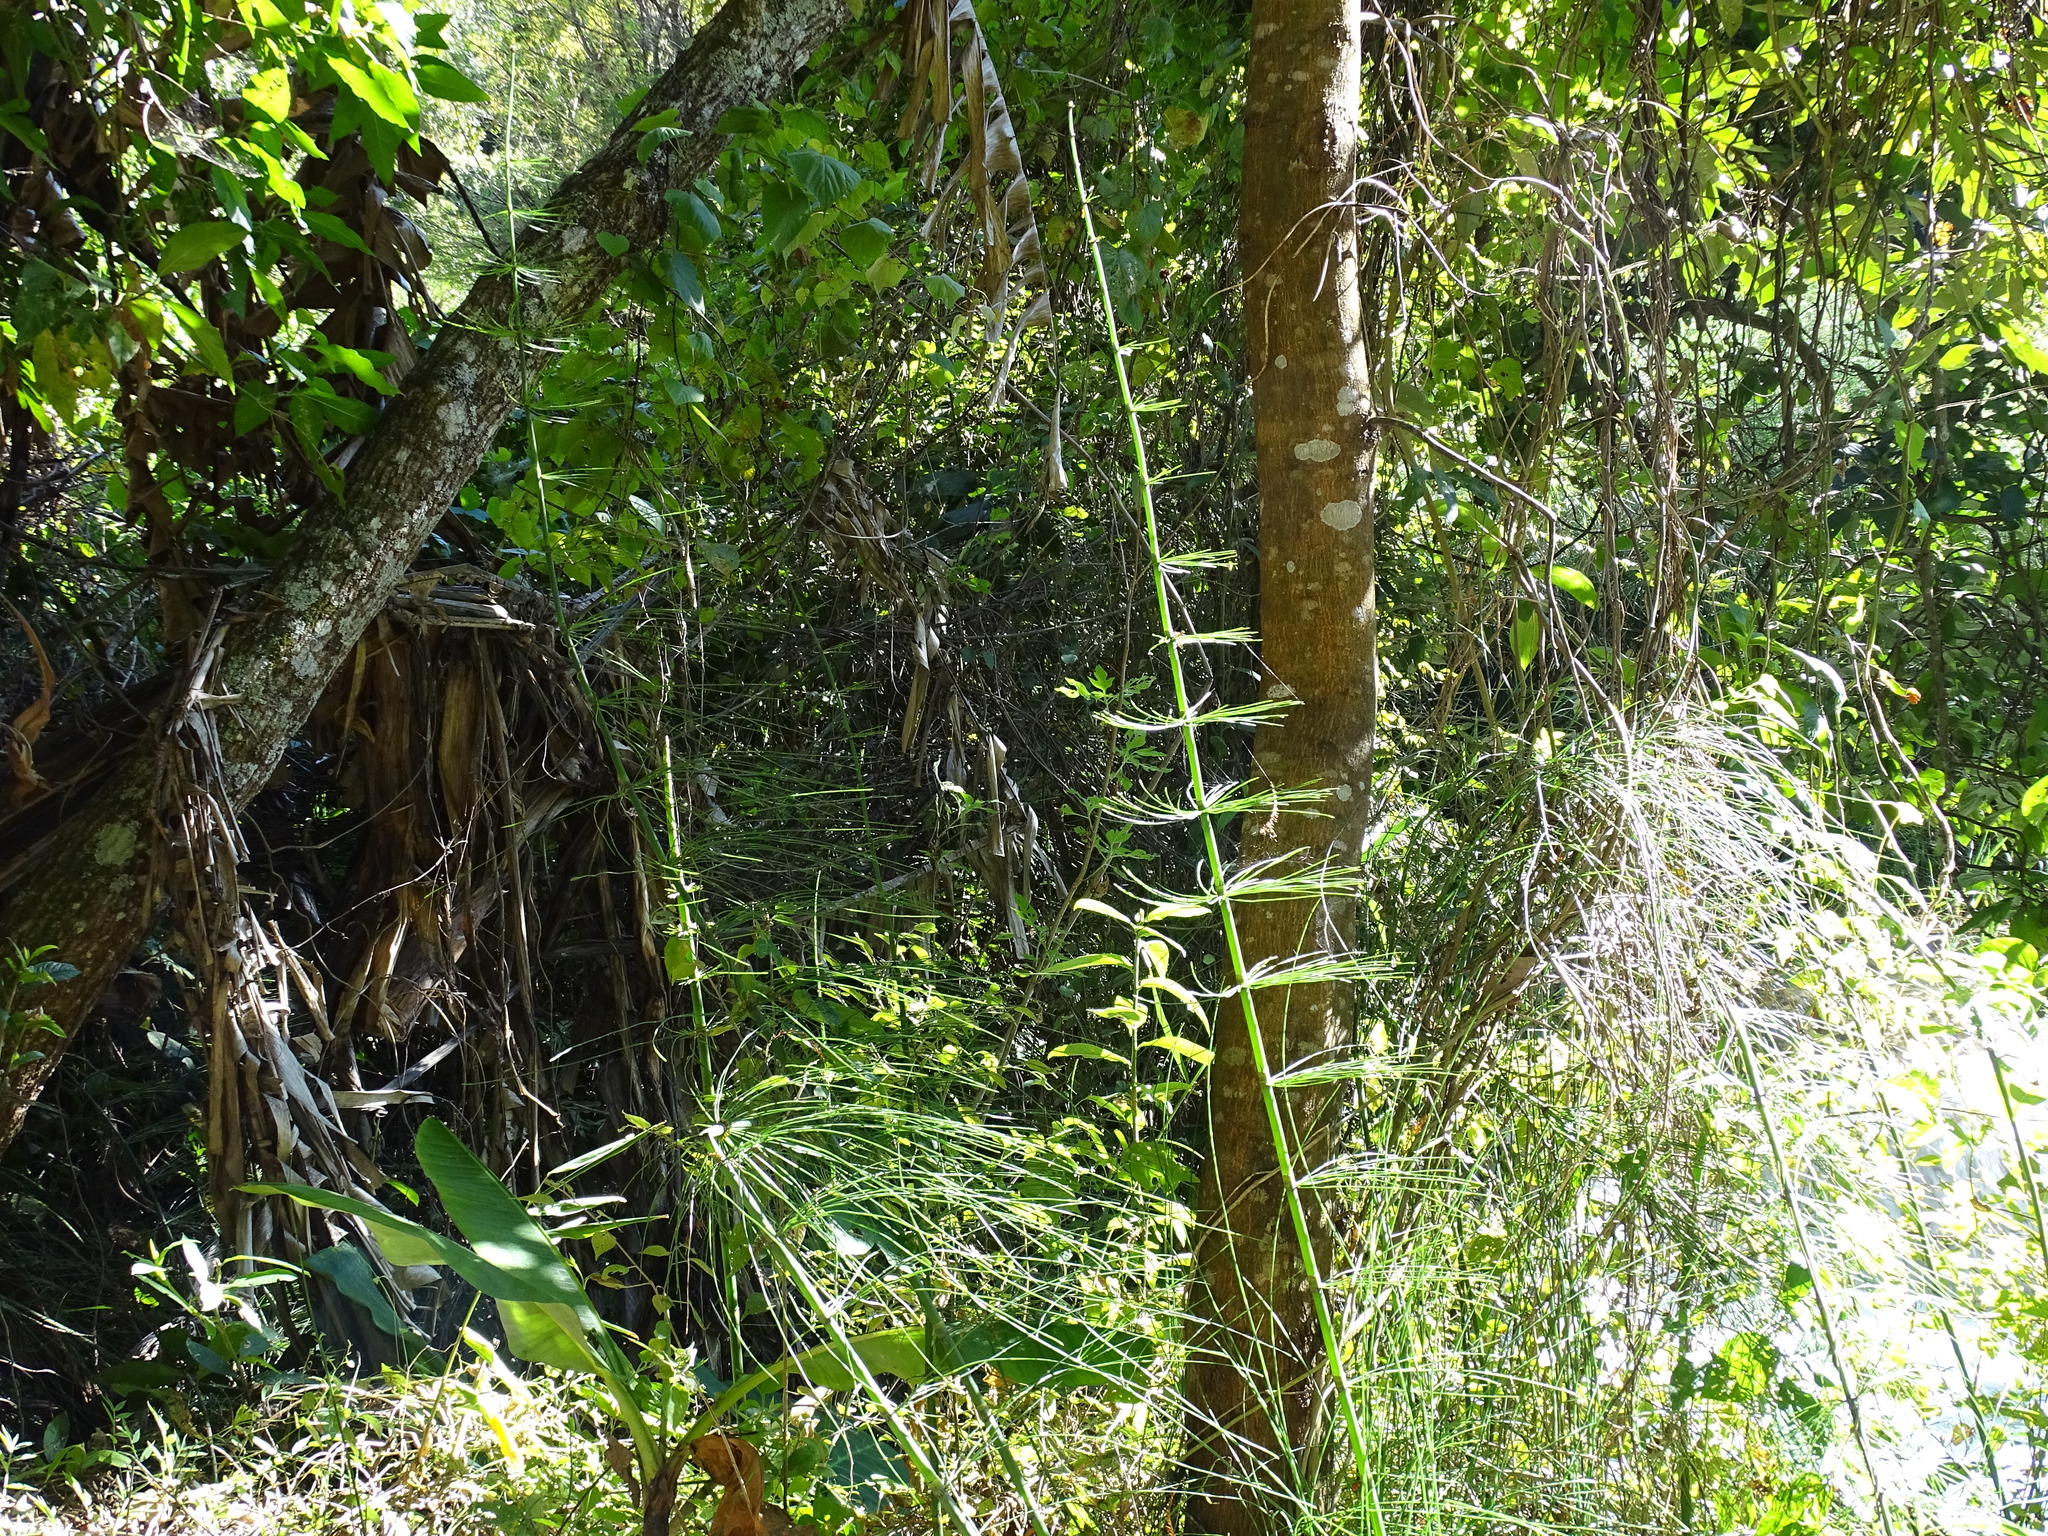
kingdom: Plantae
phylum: Tracheophyta
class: Polypodiopsida
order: Equisetales
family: Equisetaceae
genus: Equisetum
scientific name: Equisetum myriochaetum
